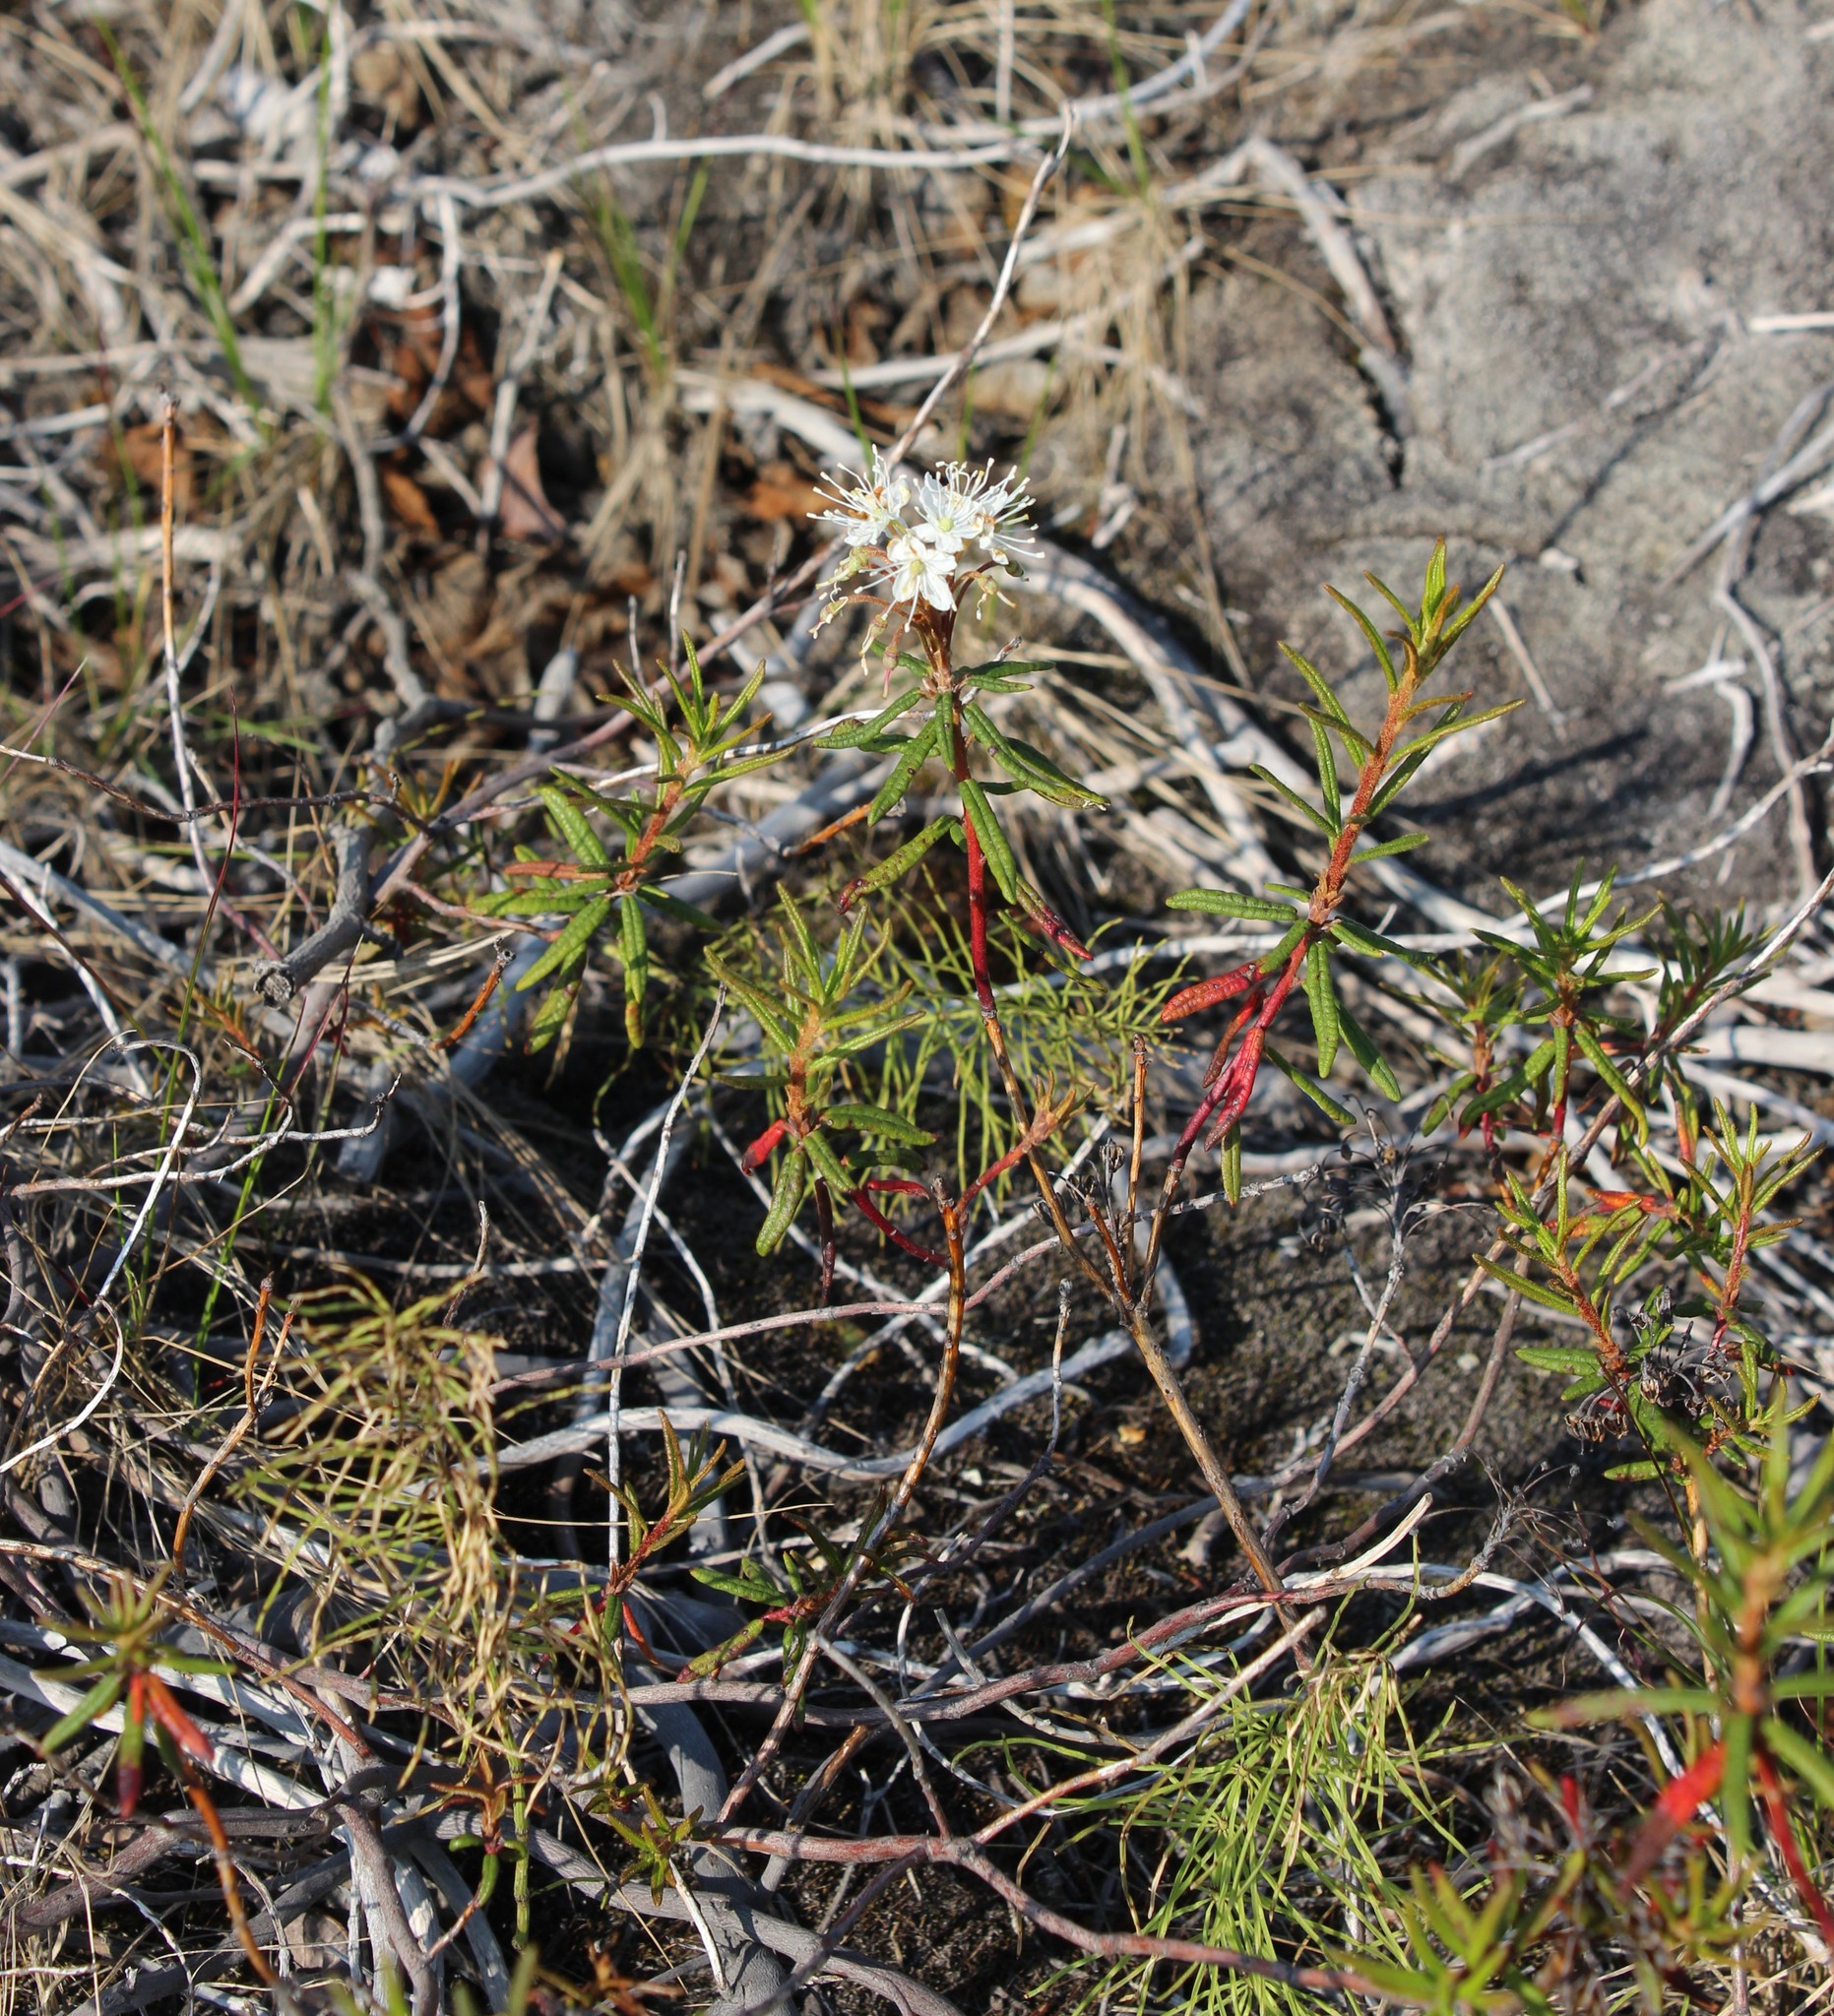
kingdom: Plantae
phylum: Tracheophyta
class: Magnoliopsida
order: Ericales
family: Ericaceae
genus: Rhododendron
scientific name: Rhododendron tomentosum
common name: Marsh labrador tea
